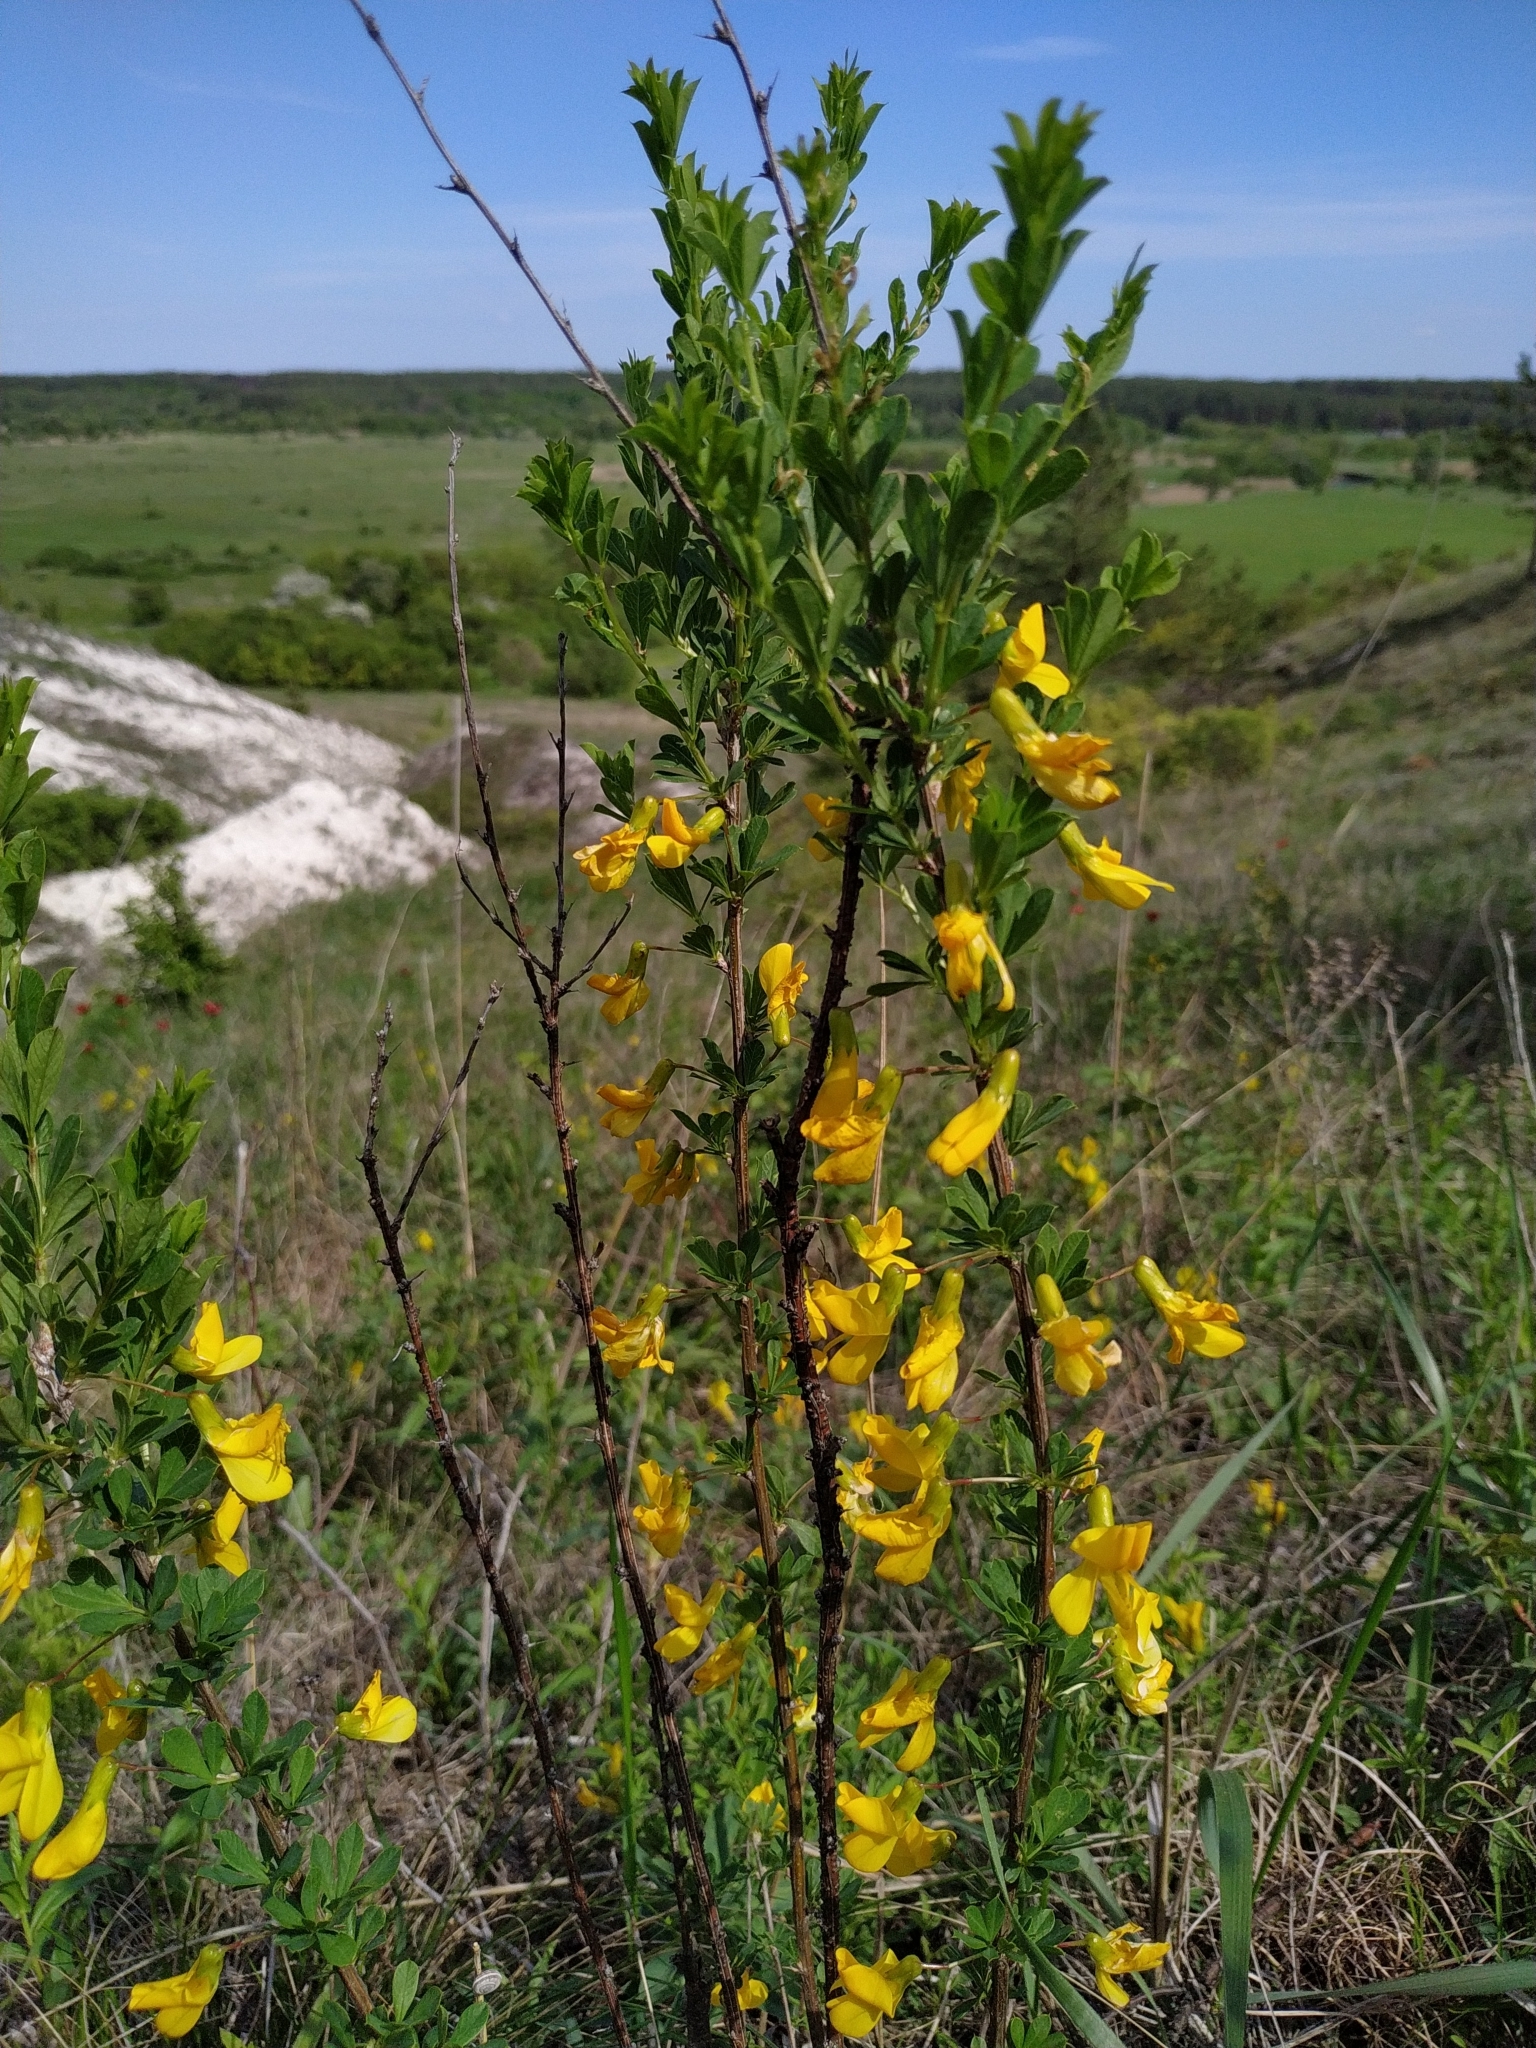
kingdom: Plantae
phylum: Tracheophyta
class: Magnoliopsida
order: Fabales
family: Fabaceae
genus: Caragana
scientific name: Caragana frutex
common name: Russian peashrub
